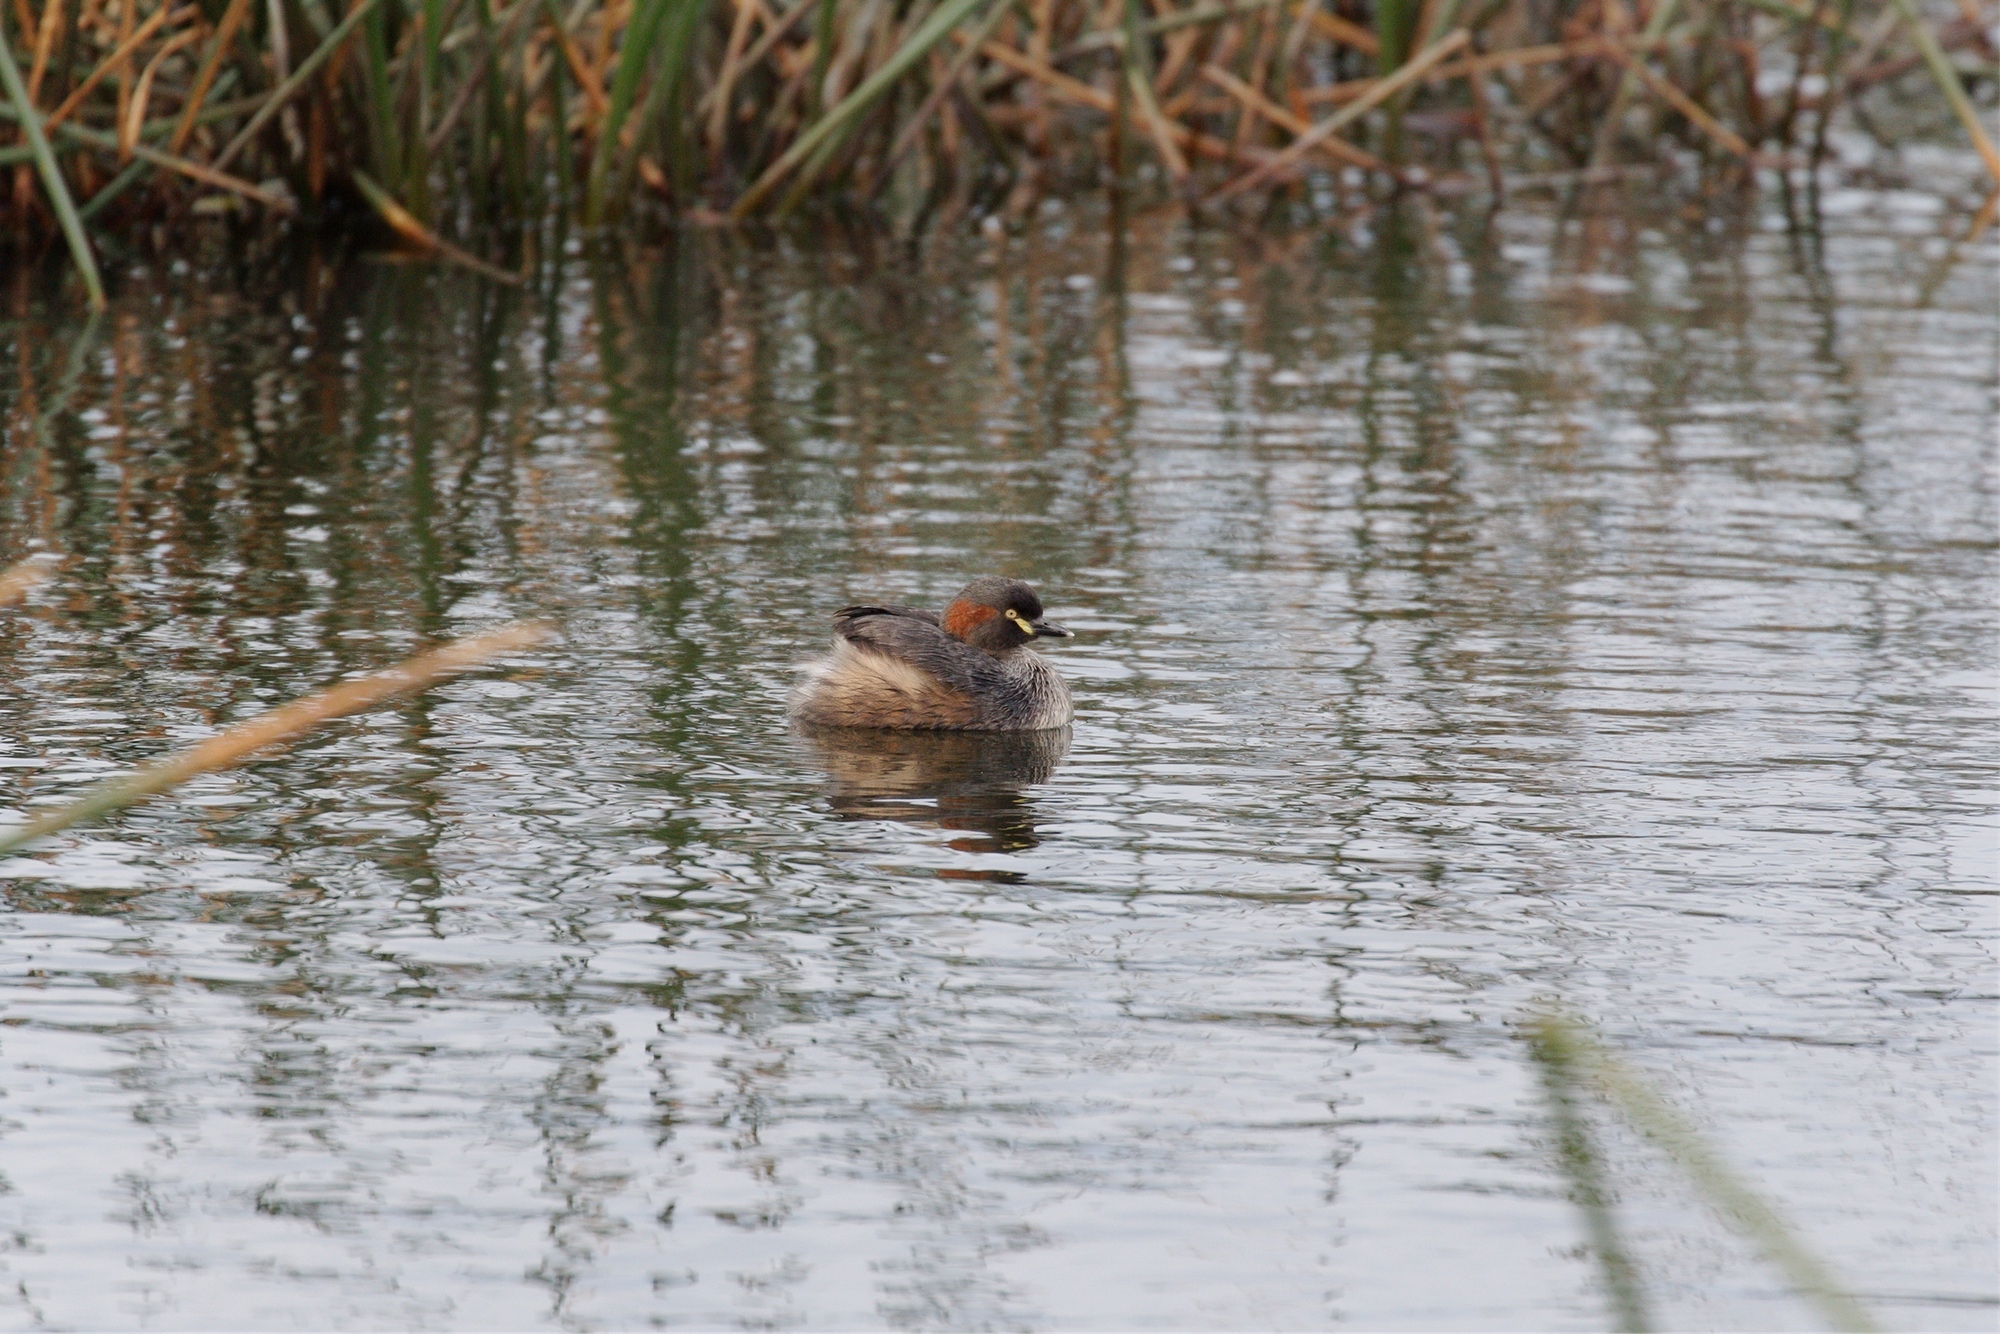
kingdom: Animalia
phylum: Chordata
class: Aves
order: Podicipediformes
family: Podicipedidae
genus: Tachybaptus
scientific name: Tachybaptus novaehollandiae
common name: Australasian grebe
